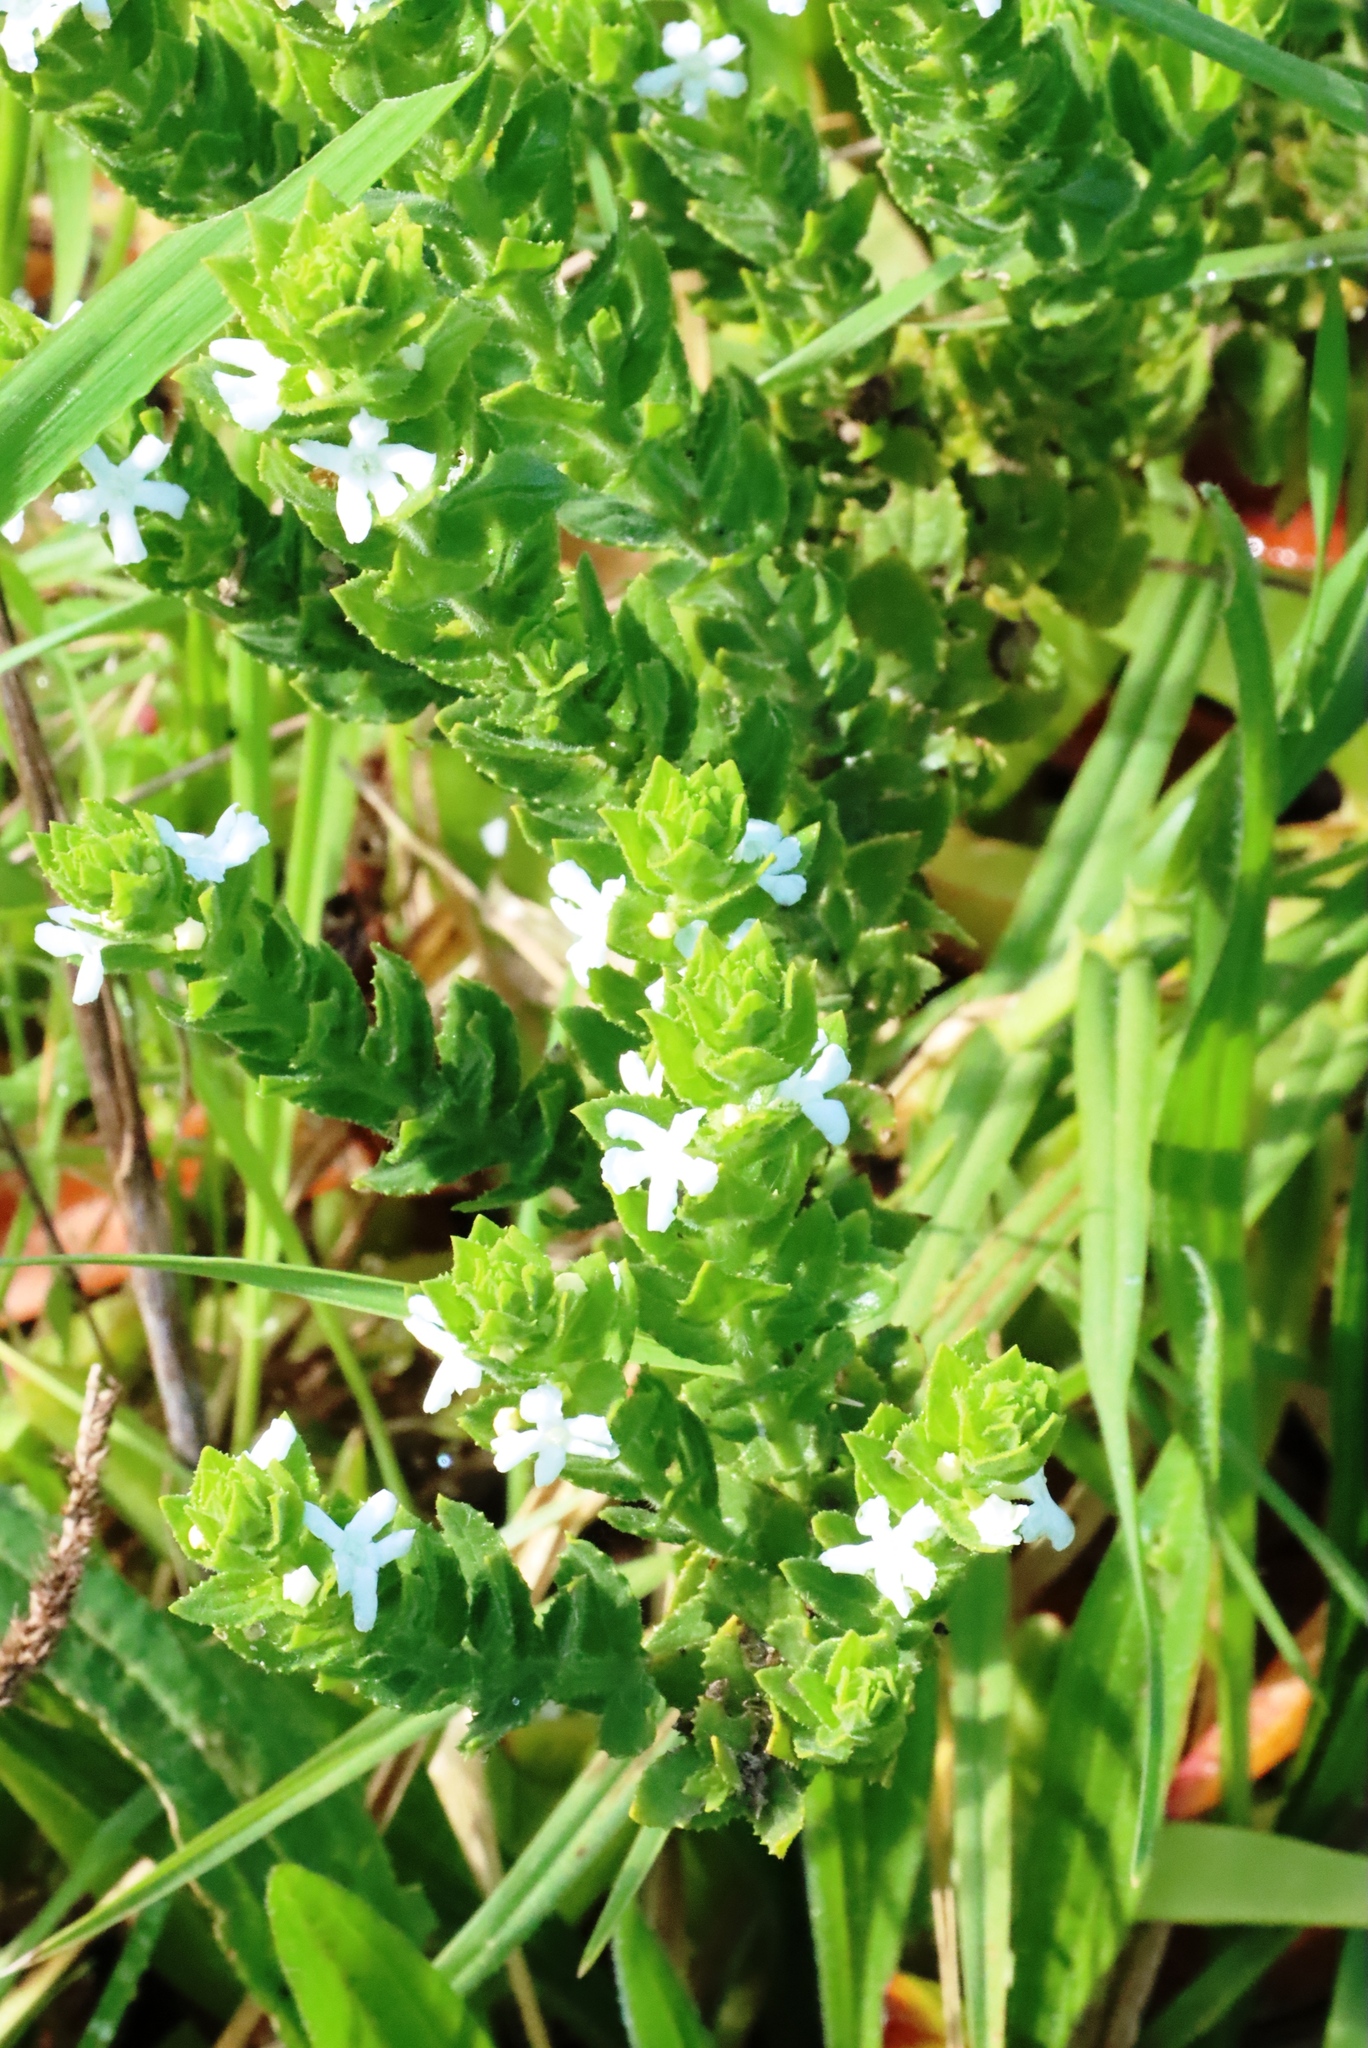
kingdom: Plantae
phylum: Tracheophyta
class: Magnoliopsida
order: Lamiales
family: Scrophulariaceae
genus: Oftia
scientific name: Oftia africana
